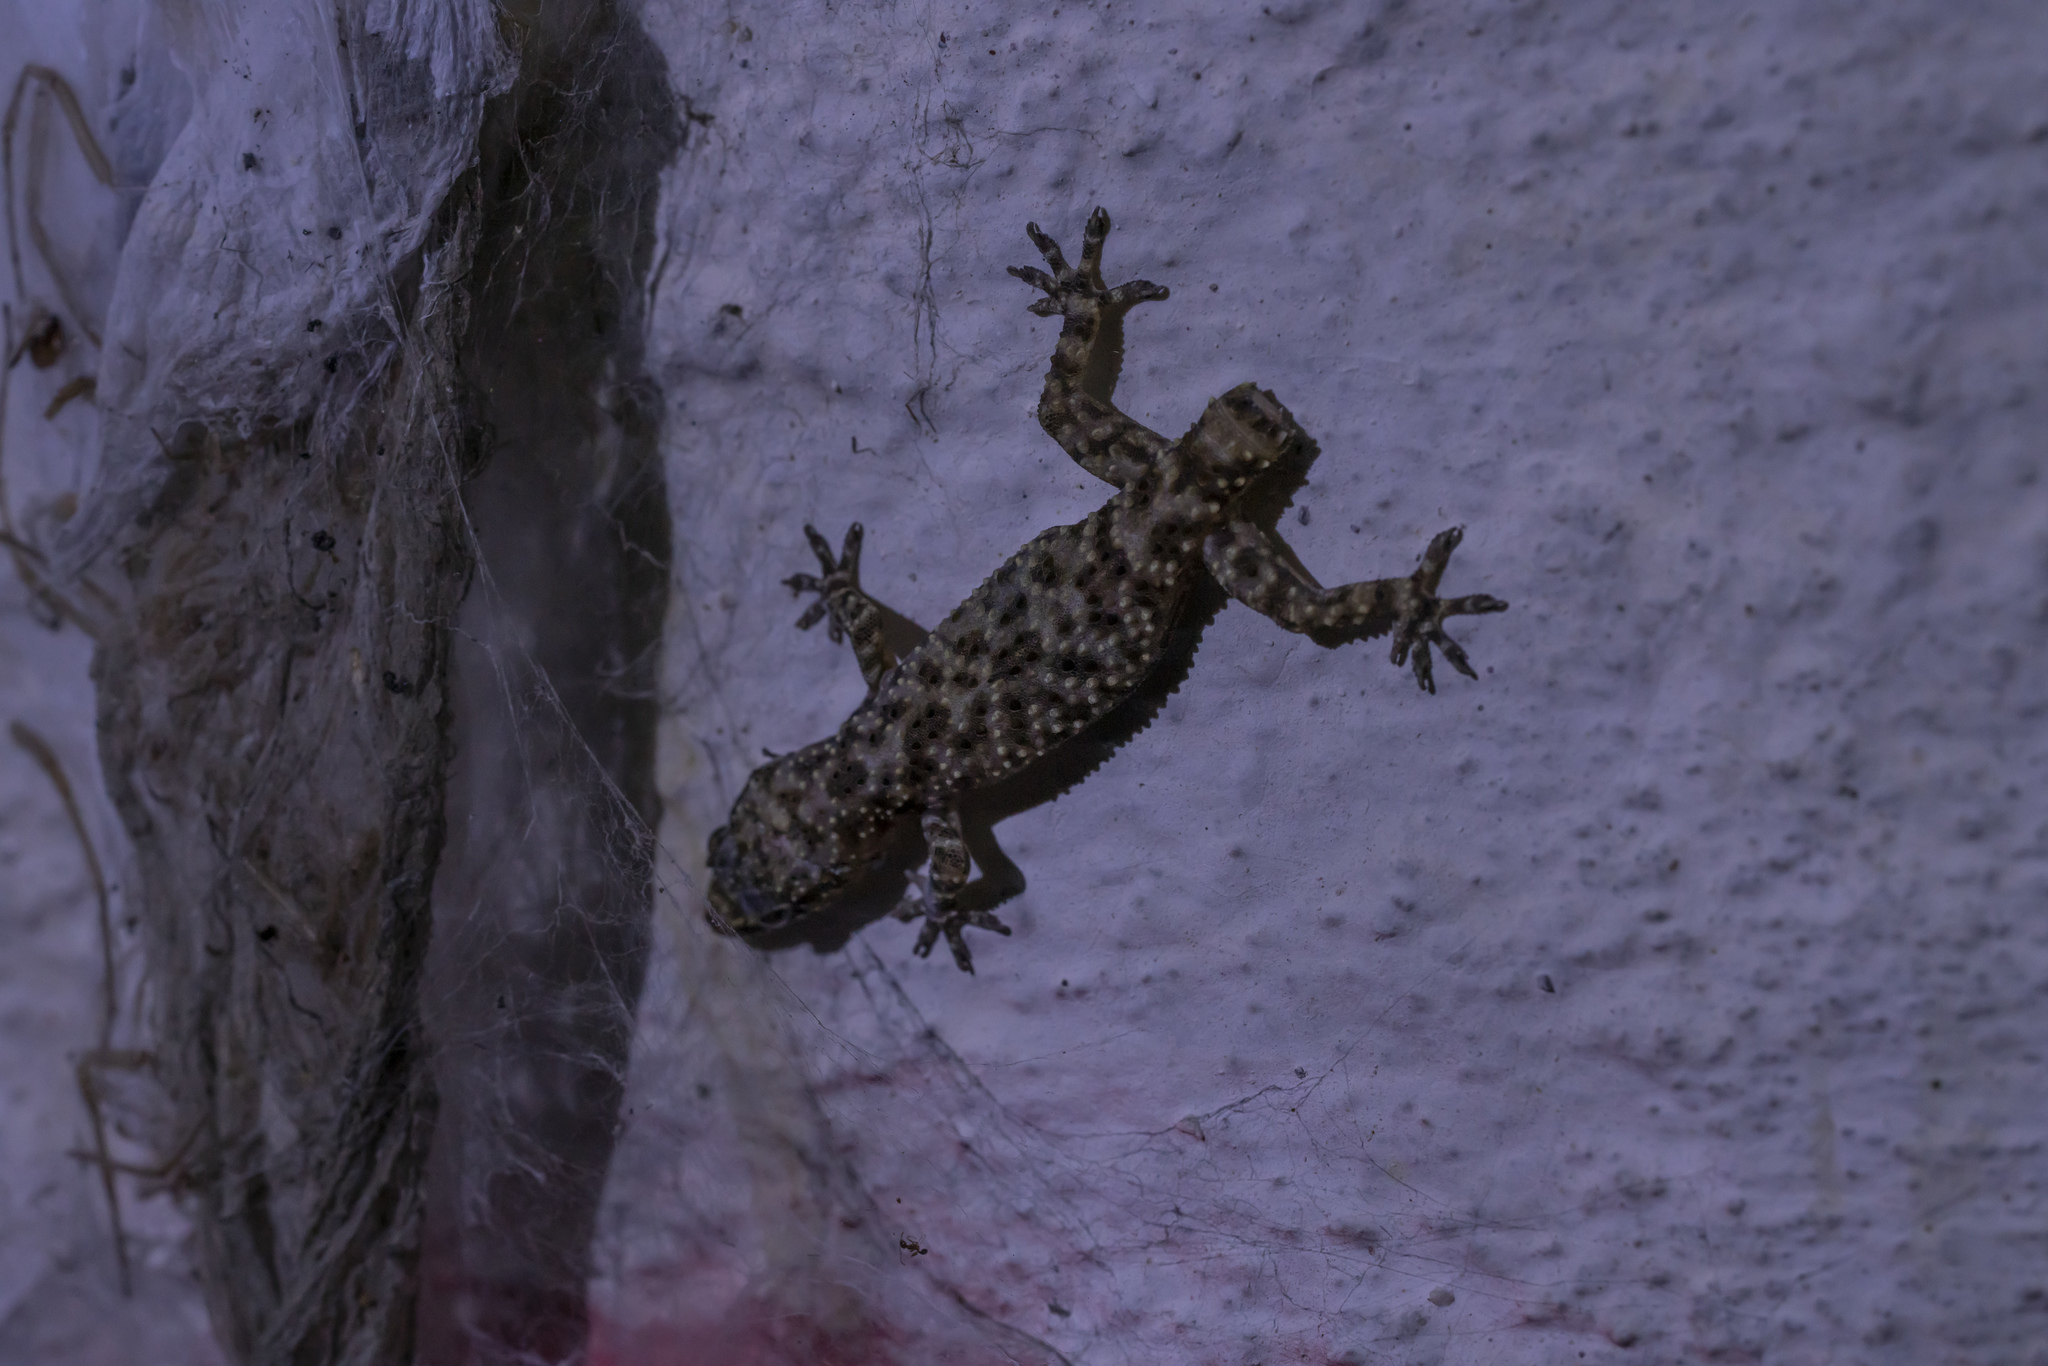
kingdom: Animalia
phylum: Chordata
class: Squamata
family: Gekkonidae
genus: Hemidactylus
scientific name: Hemidactylus turcicus
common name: Turkish gecko
